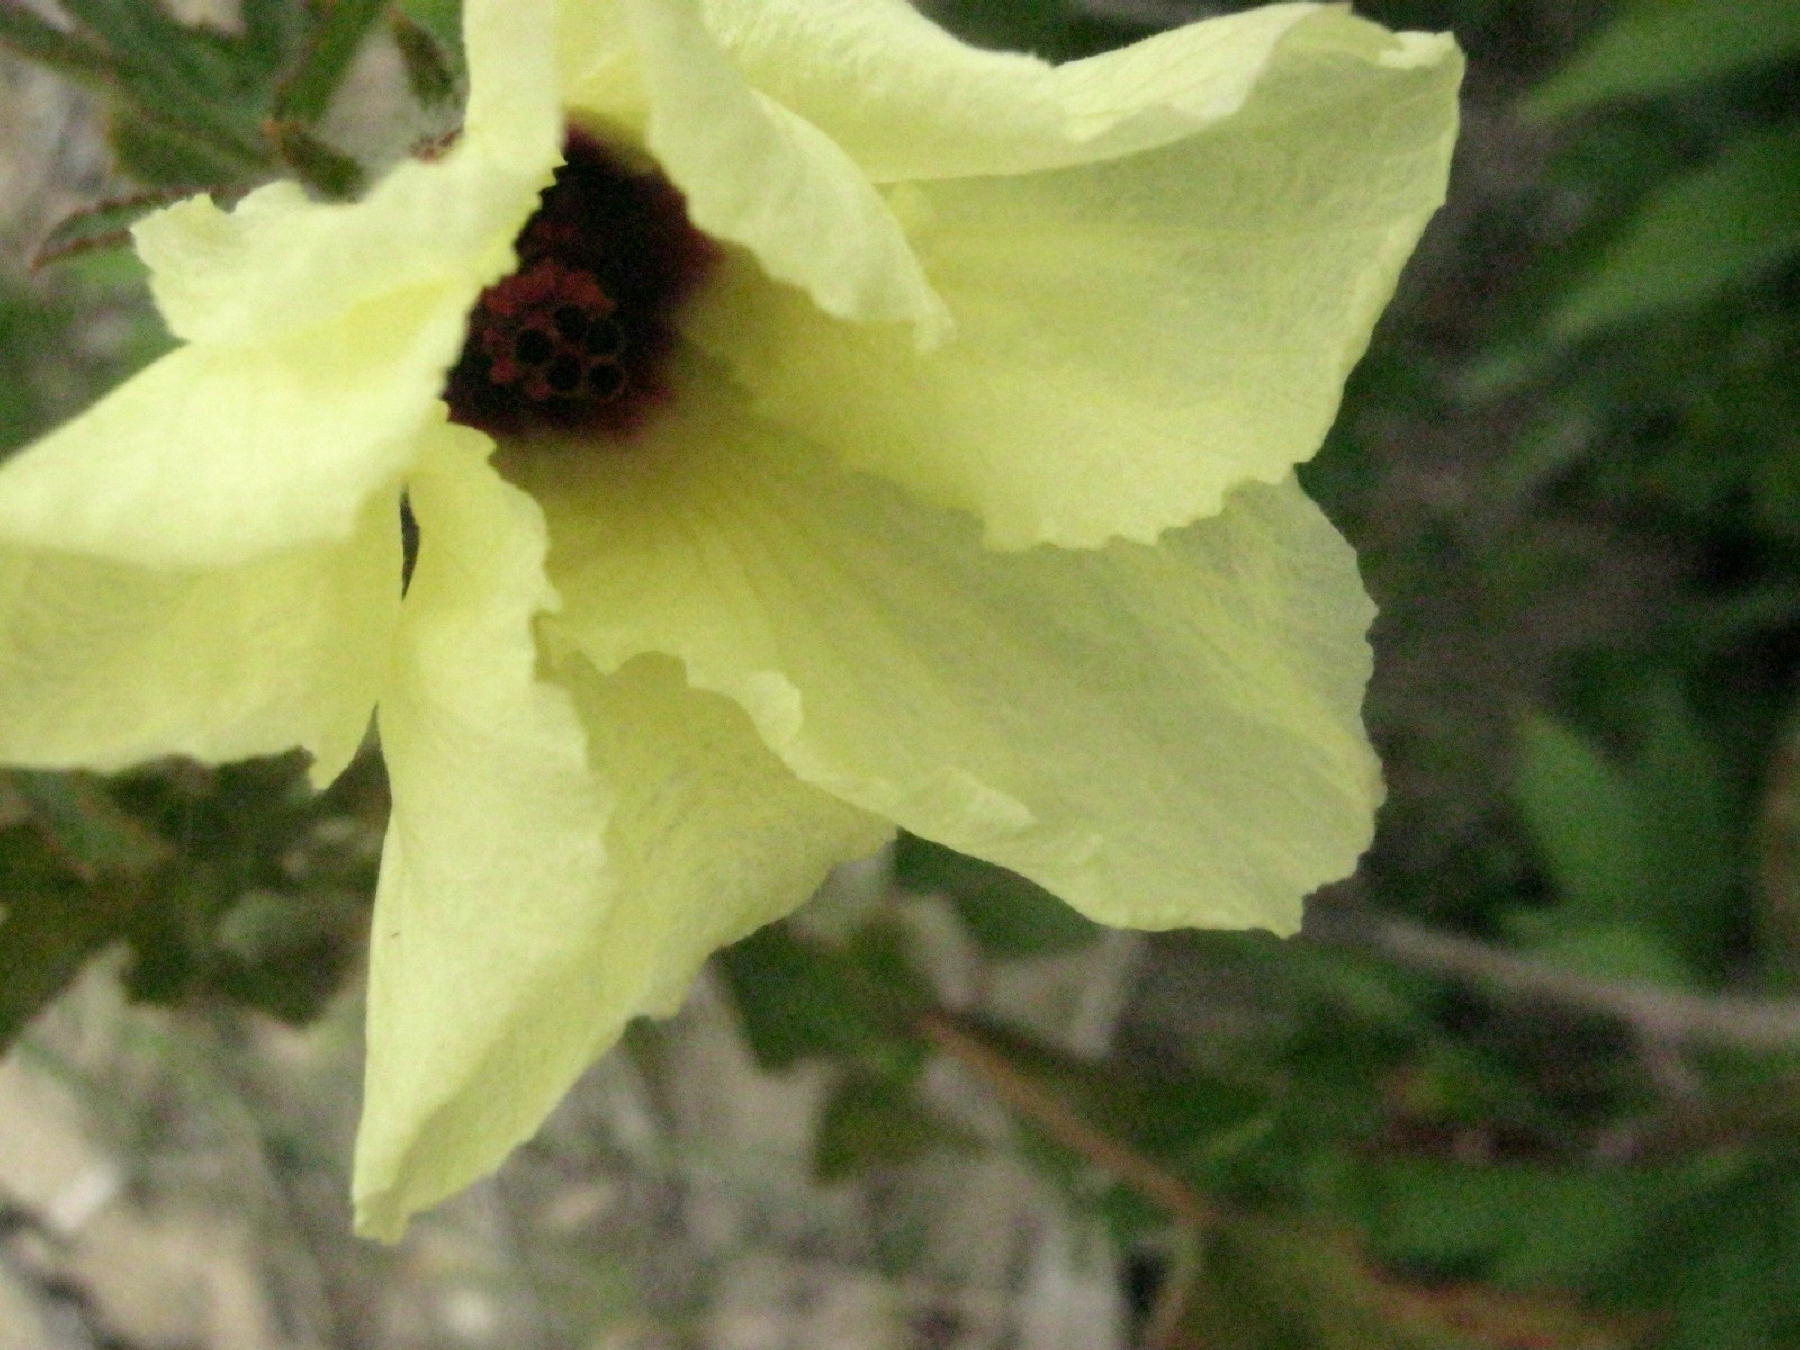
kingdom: Plantae
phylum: Tracheophyta
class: Magnoliopsida
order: Malvales
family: Malvaceae
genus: Hibiscus
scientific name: Hibiscus diversifolius
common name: Cape hibiscus
